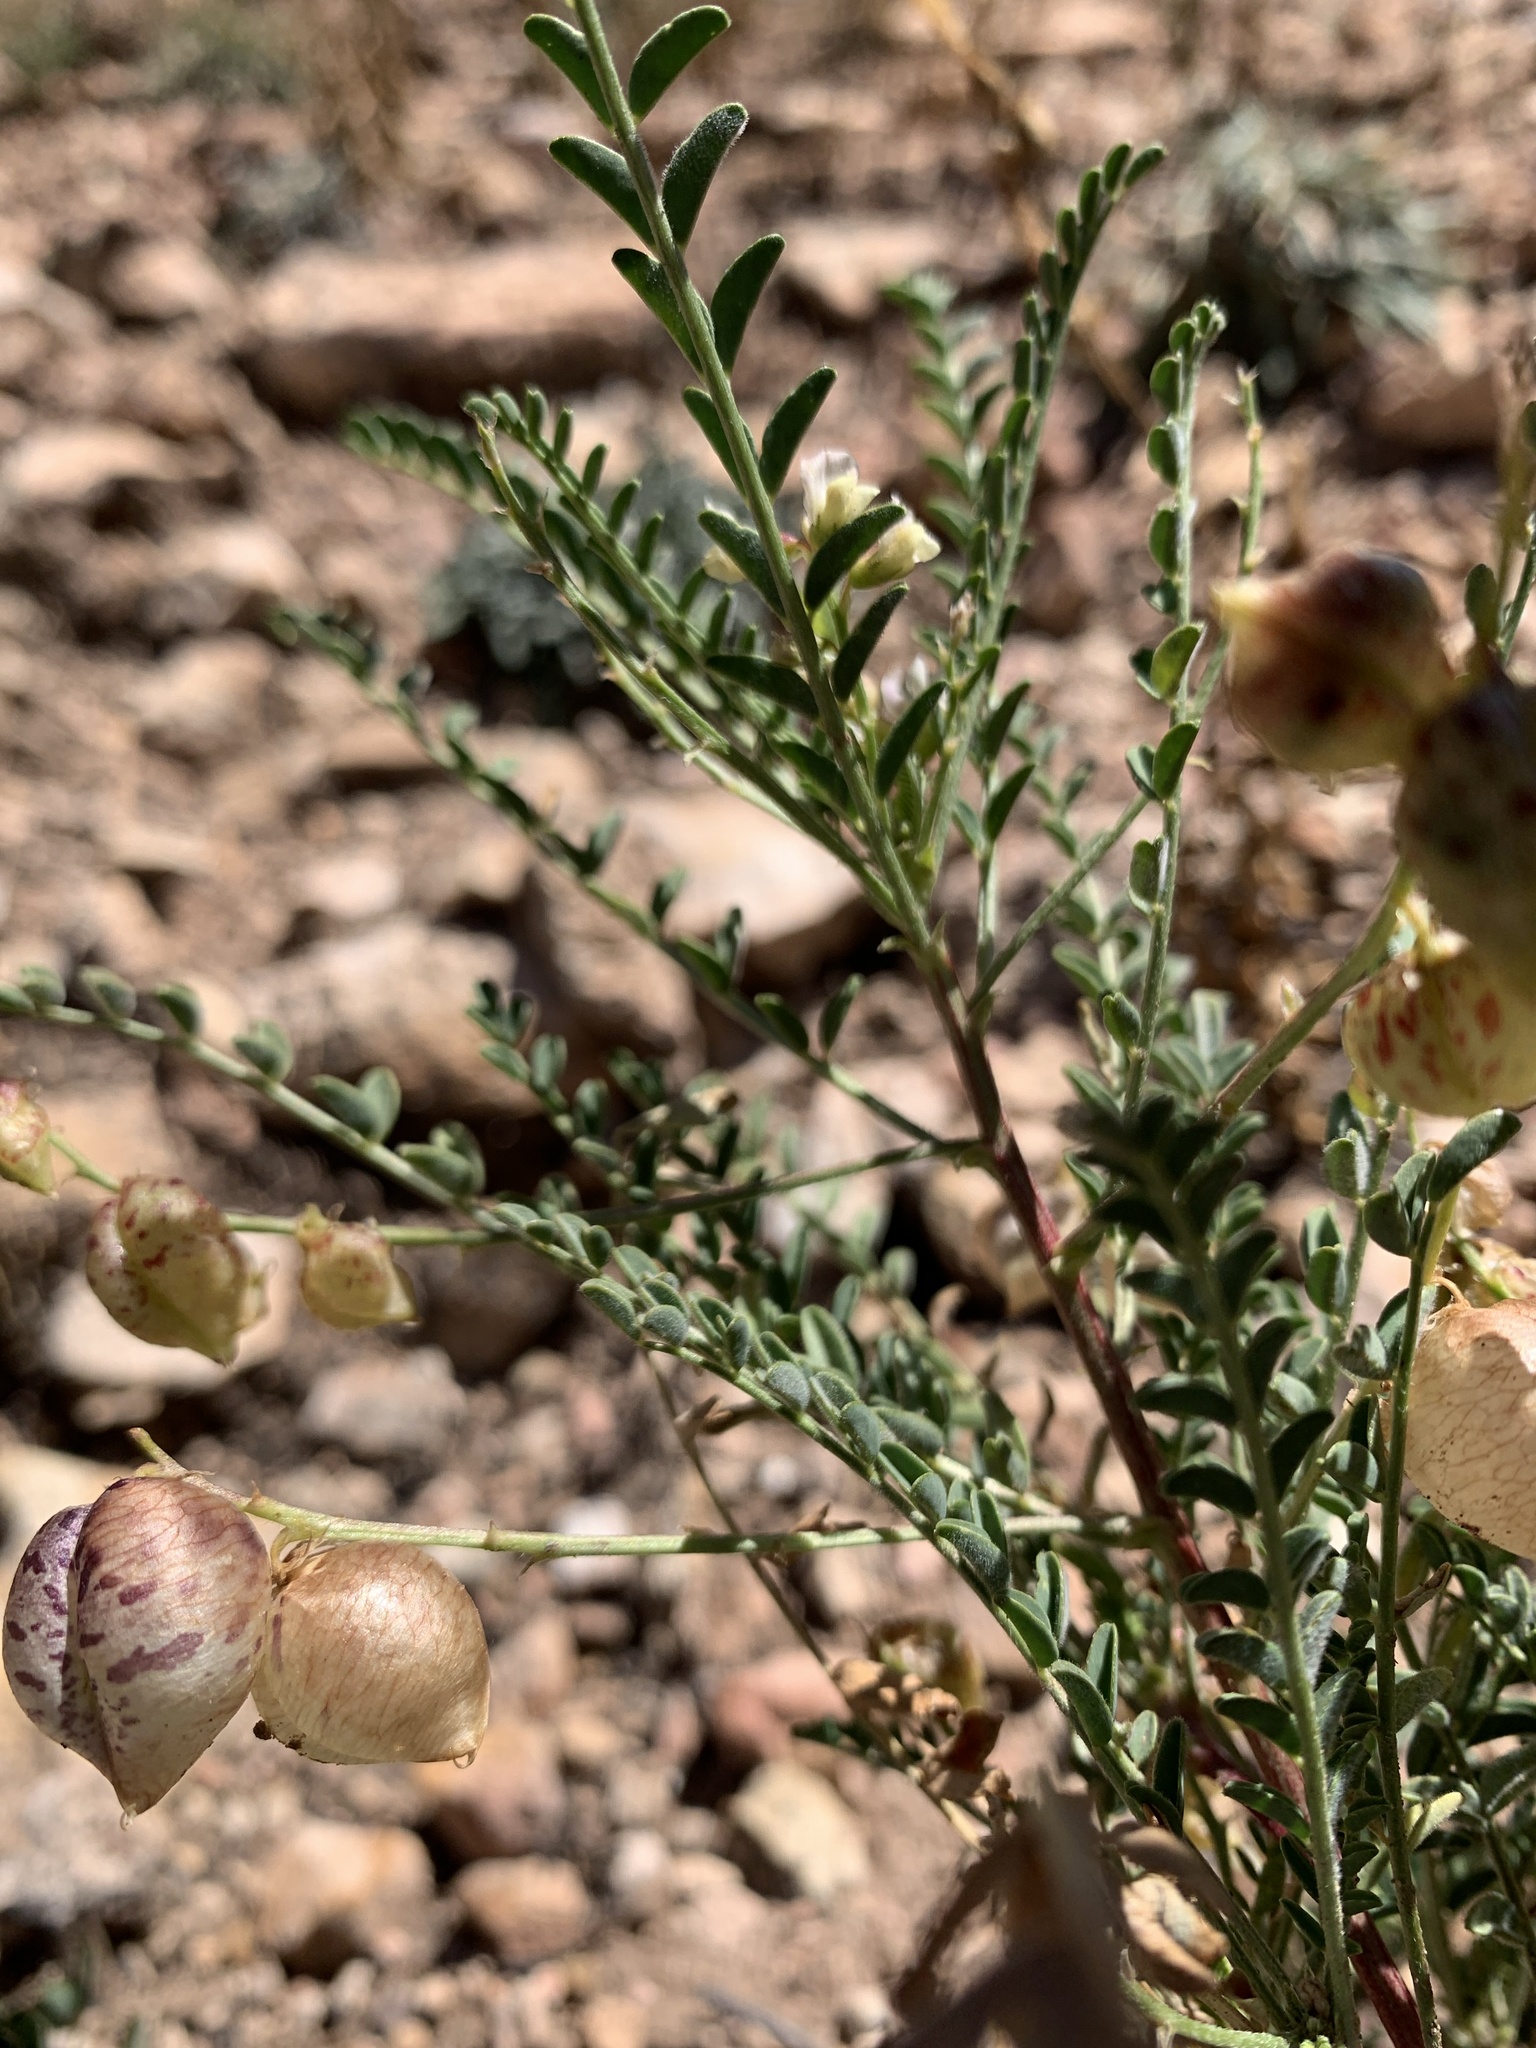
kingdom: Plantae
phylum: Tracheophyta
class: Magnoliopsida
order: Fabales
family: Fabaceae
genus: Astragalus
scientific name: Astragalus wardii
